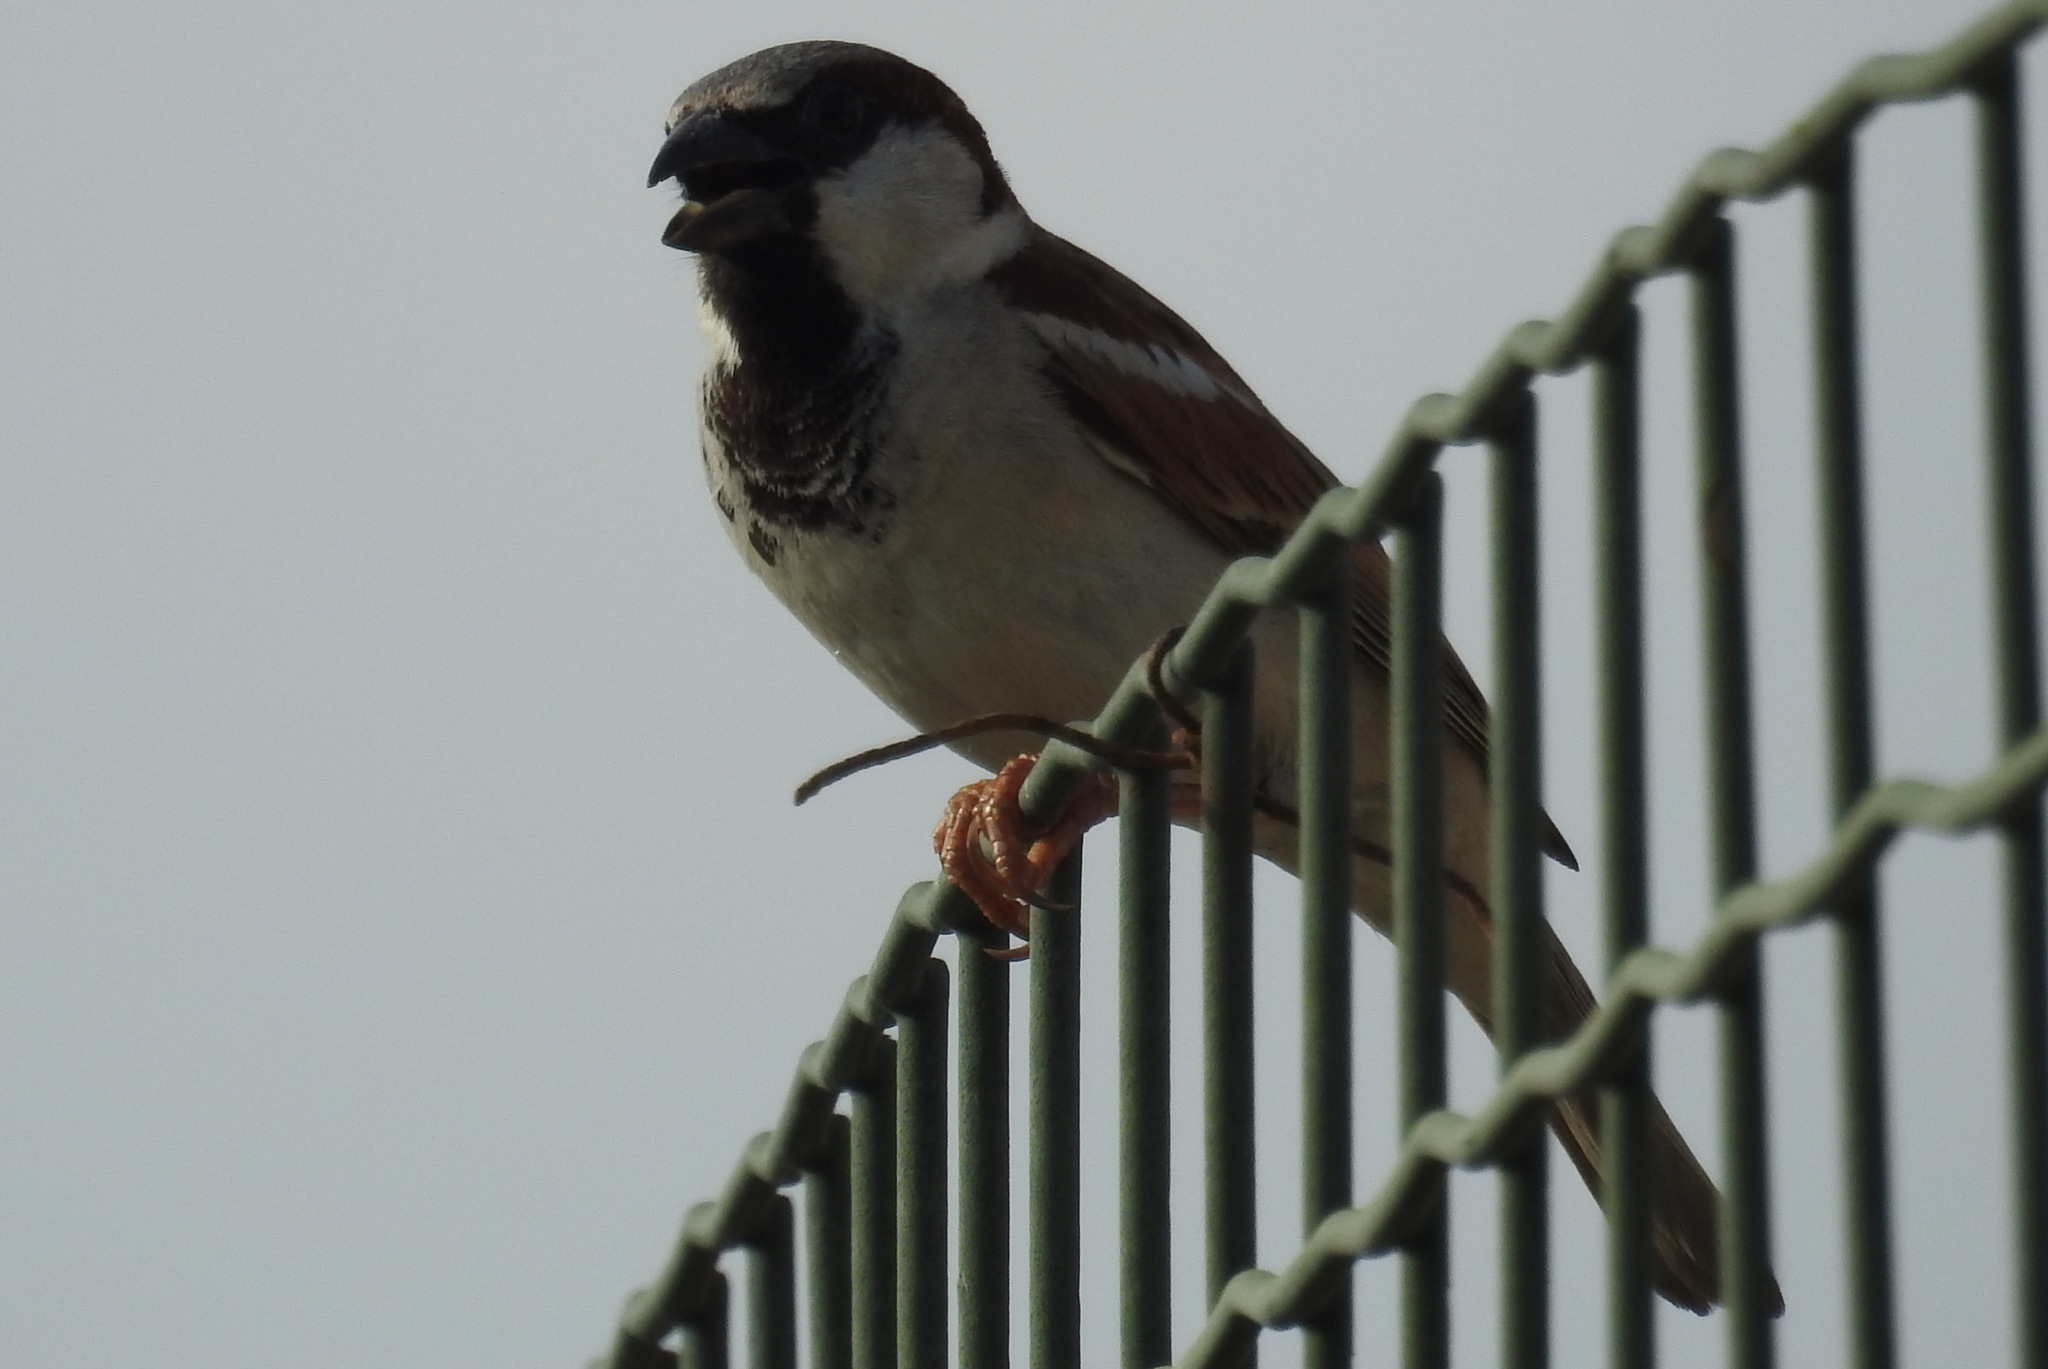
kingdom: Animalia
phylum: Chordata
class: Aves
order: Passeriformes
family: Passeridae
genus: Passer
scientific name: Passer domesticus
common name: House sparrow
